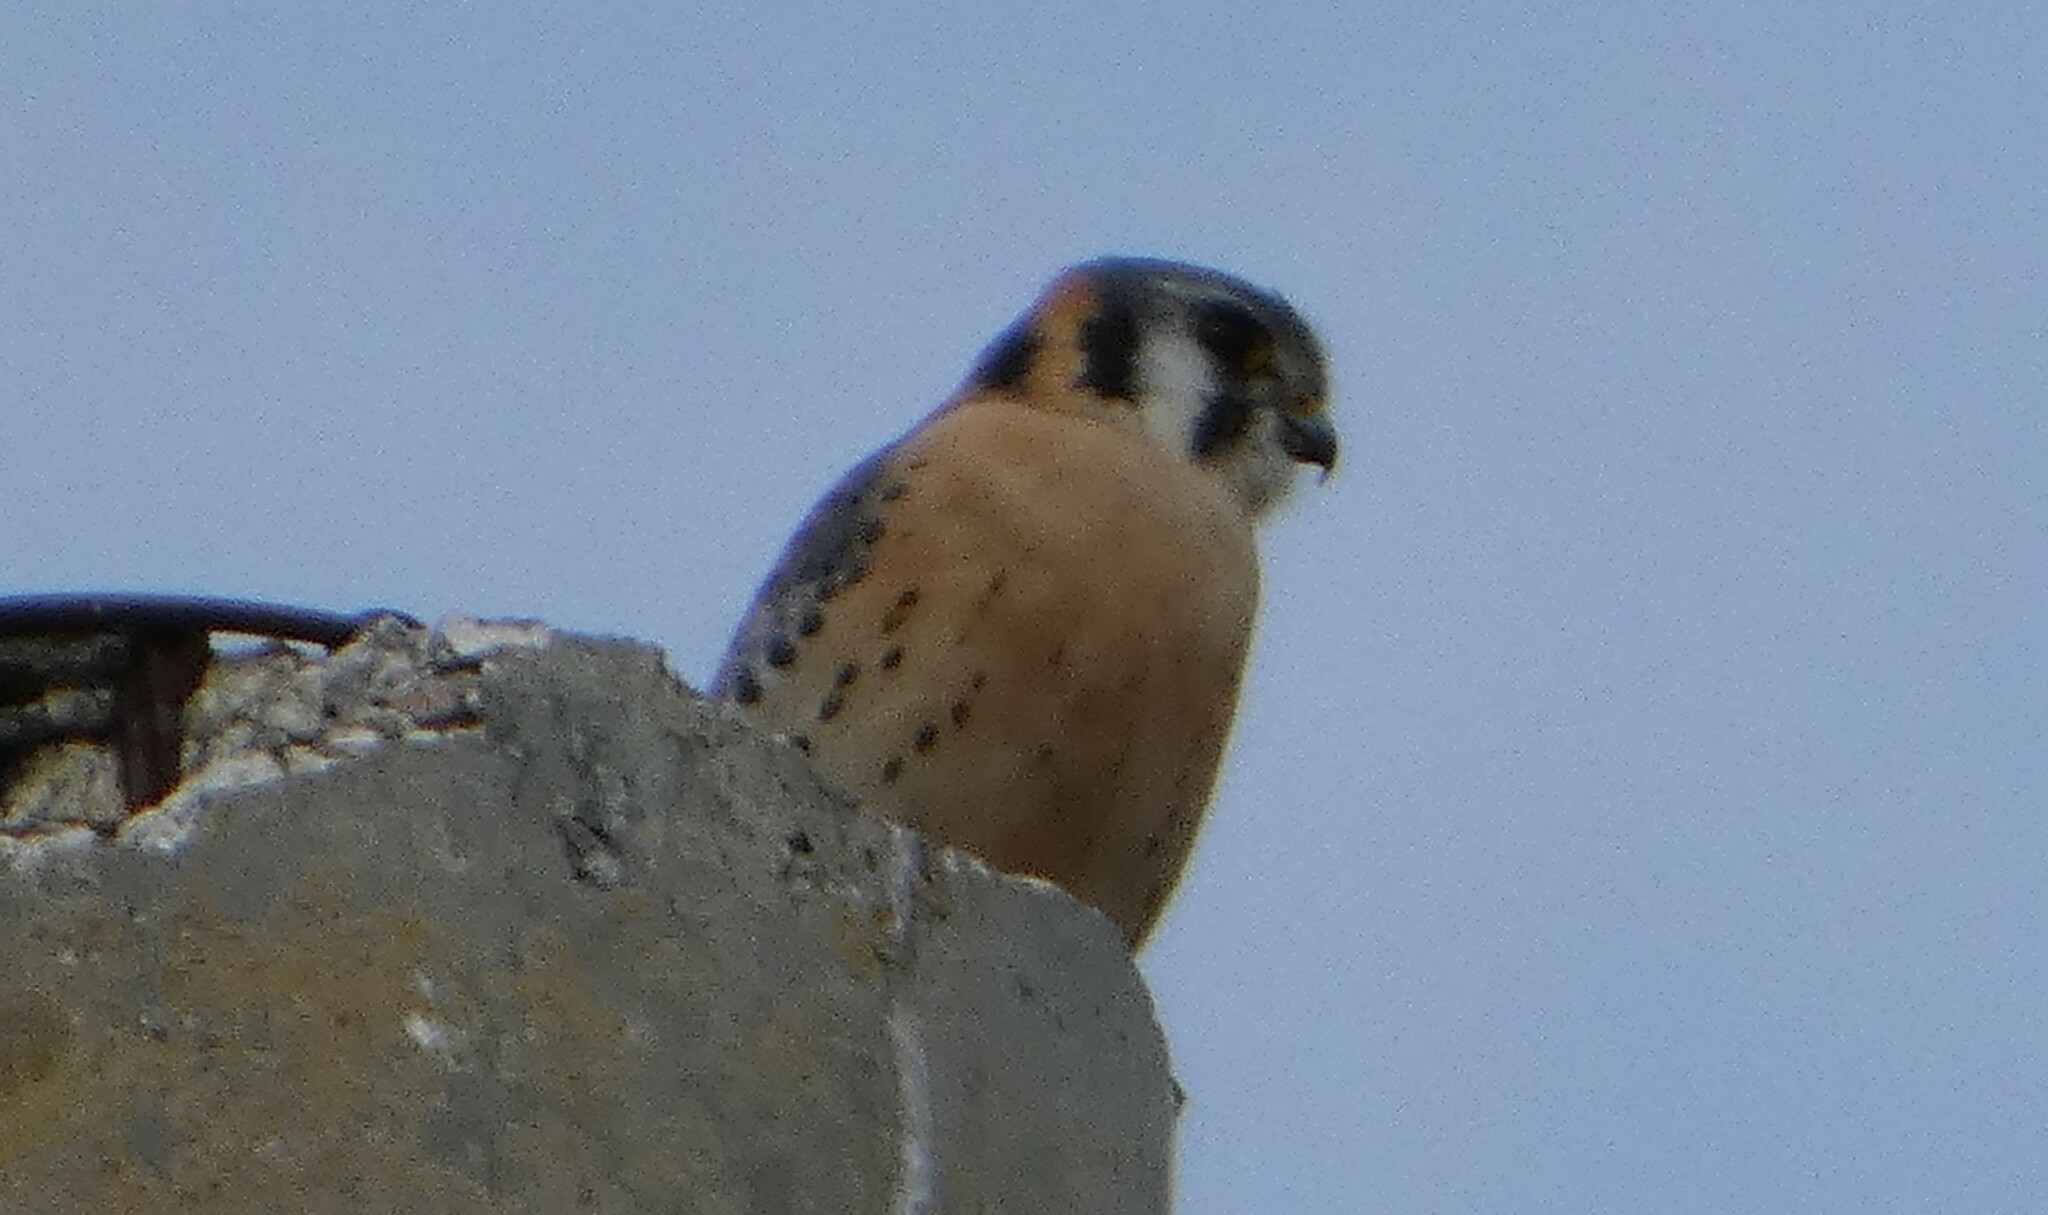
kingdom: Animalia
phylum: Chordata
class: Aves
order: Falconiformes
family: Falconidae
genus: Falco
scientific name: Falco sparverius
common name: American kestrel
